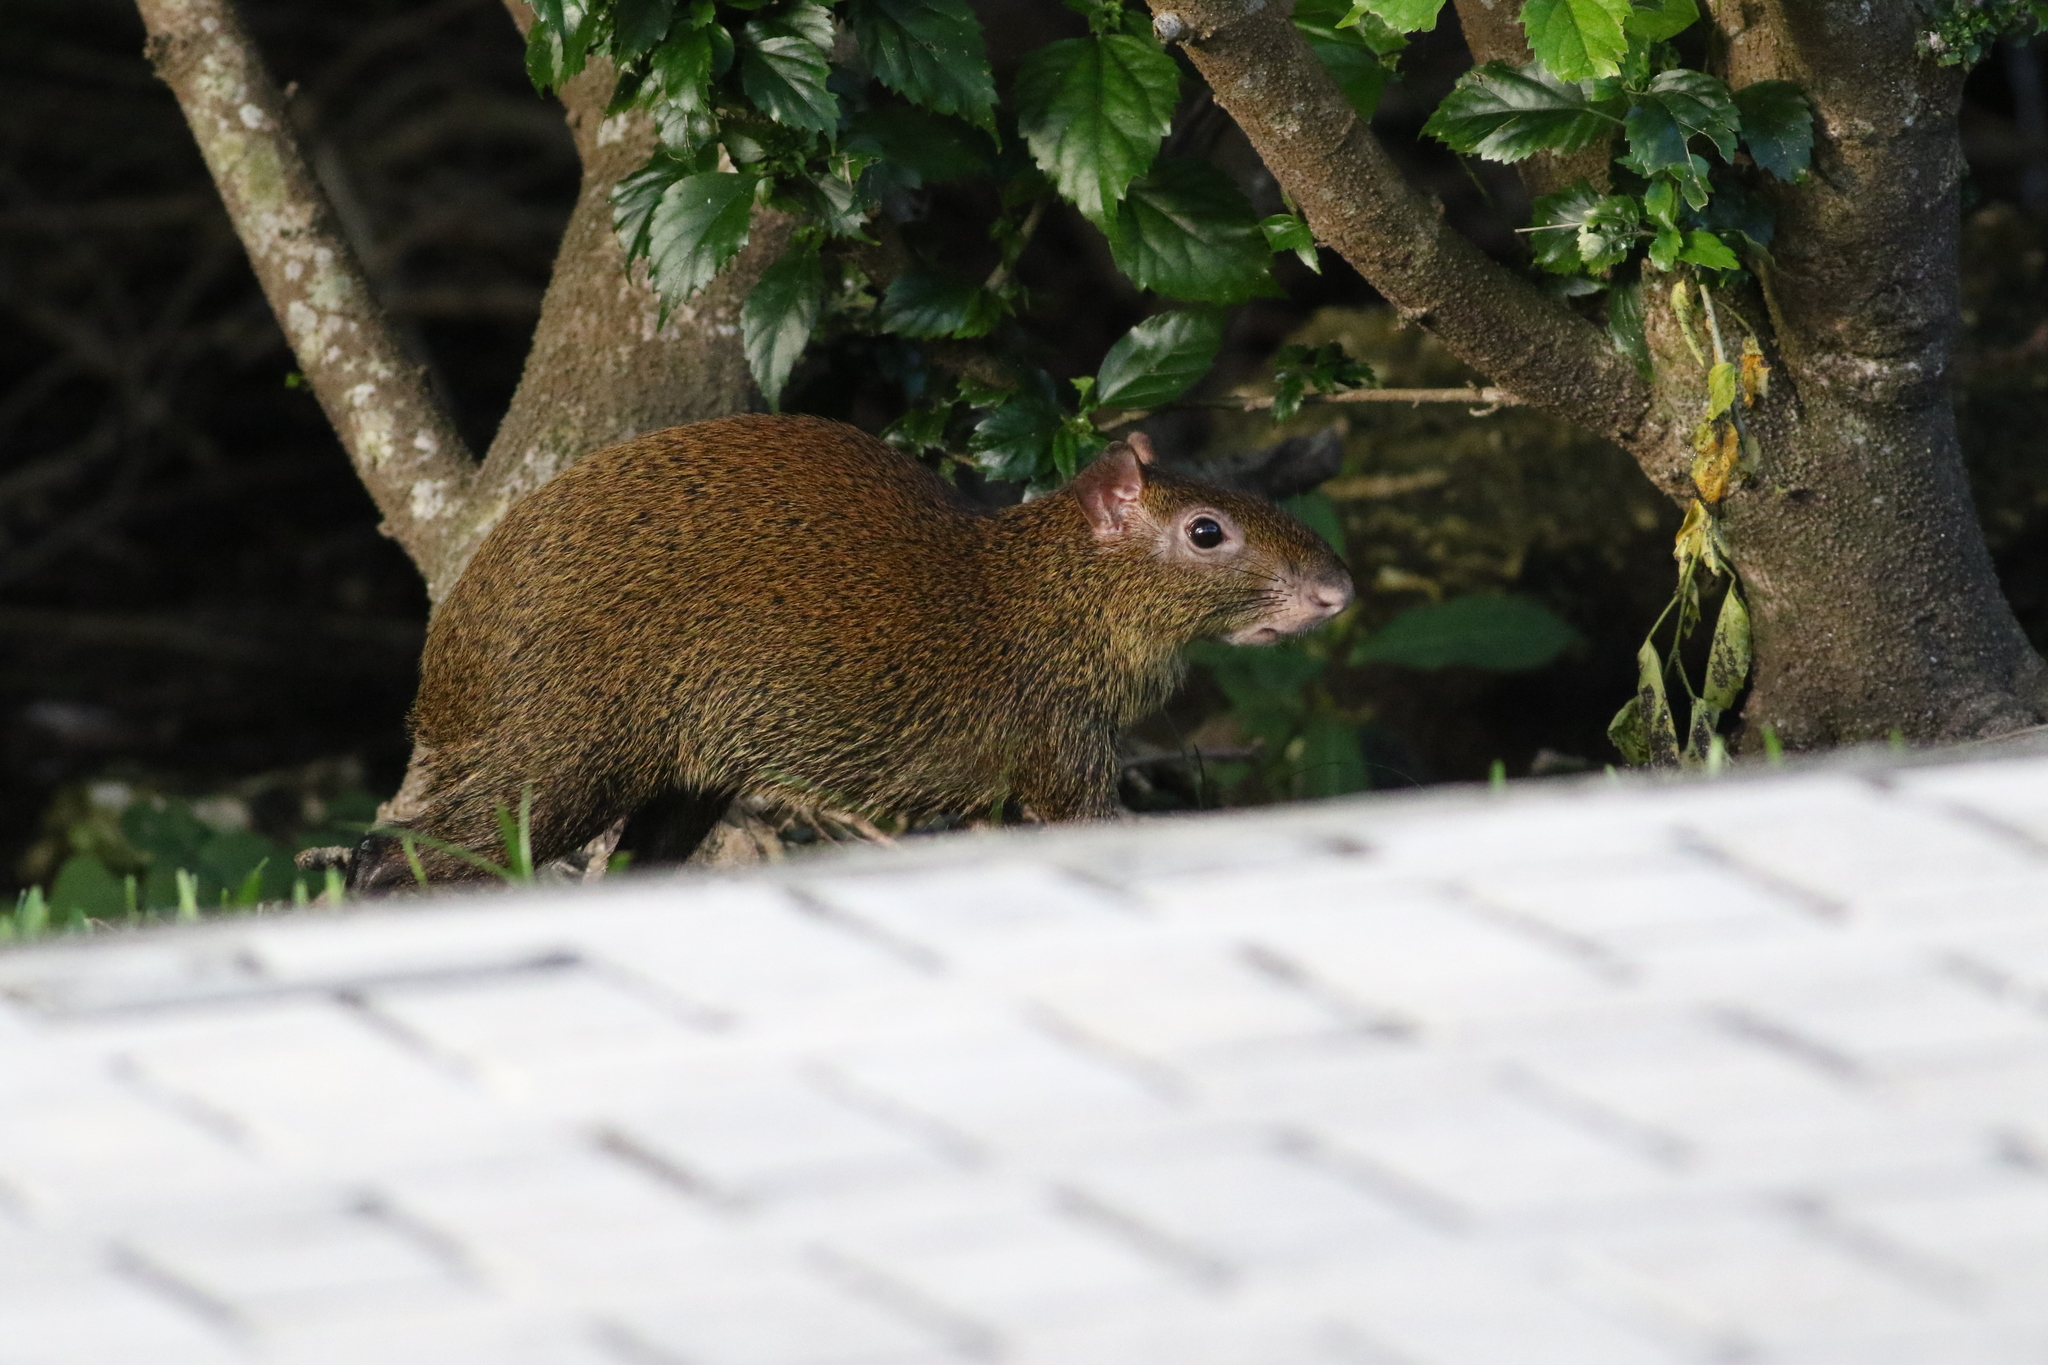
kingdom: Animalia
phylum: Chordata
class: Mammalia
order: Rodentia
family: Dasyproctidae
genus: Dasyprocta
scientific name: Dasyprocta punctata
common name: Central american agouti
